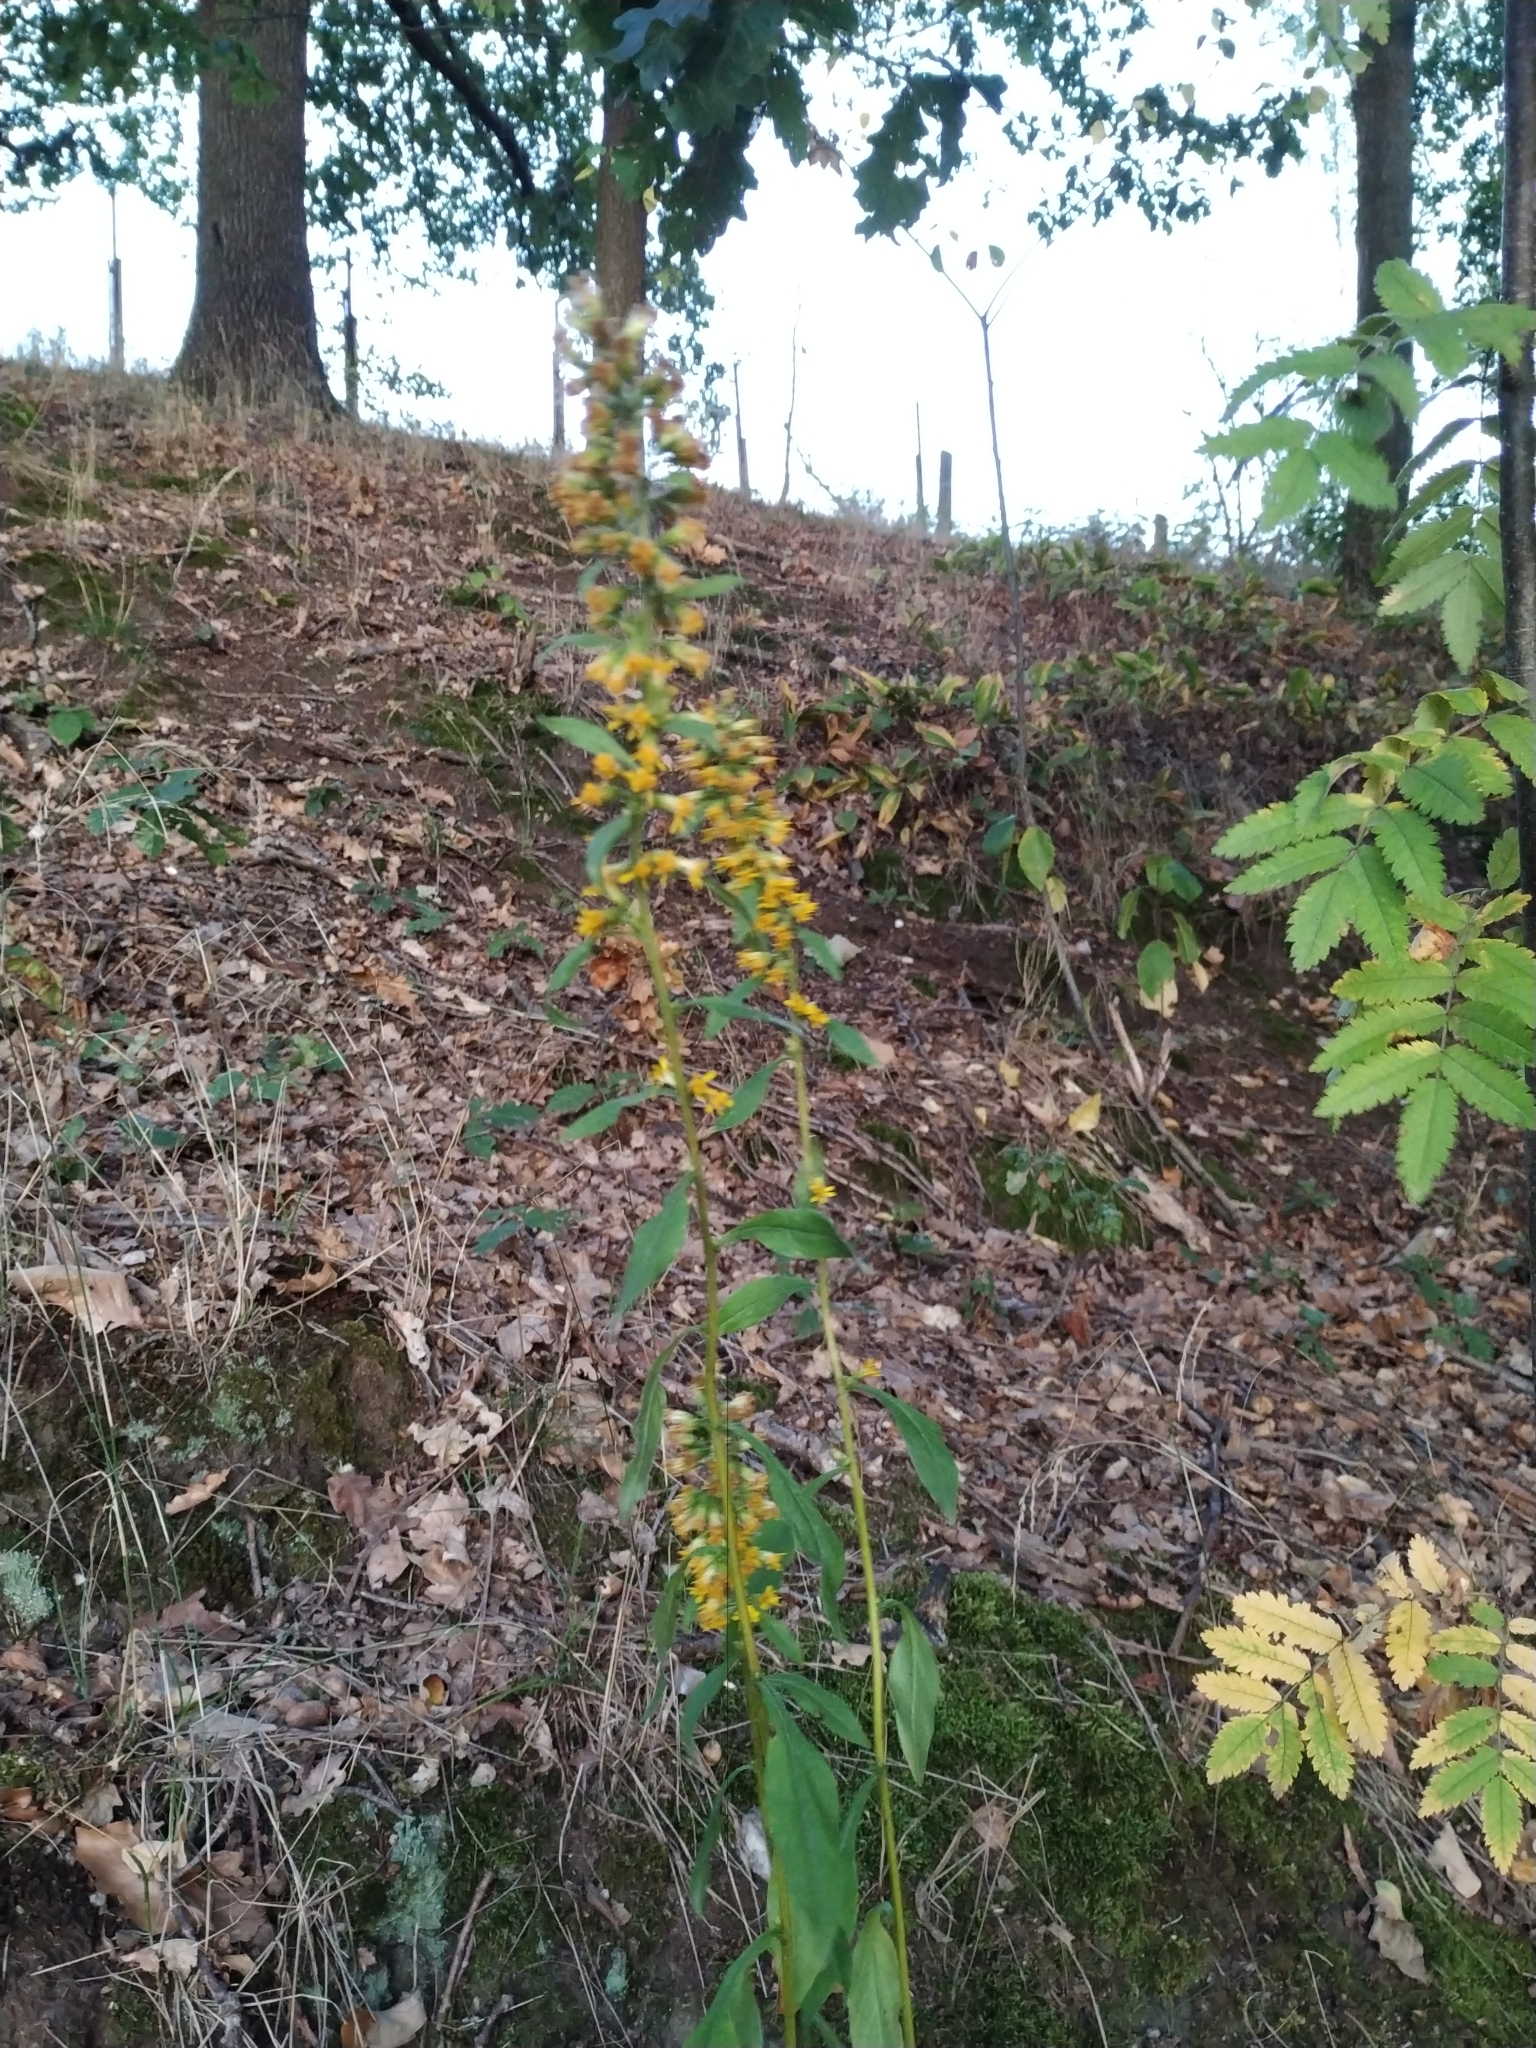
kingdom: Plantae
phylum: Tracheophyta
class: Magnoliopsida
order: Asterales
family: Asteraceae
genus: Solidago
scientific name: Solidago virgaurea
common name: Goldenrod
